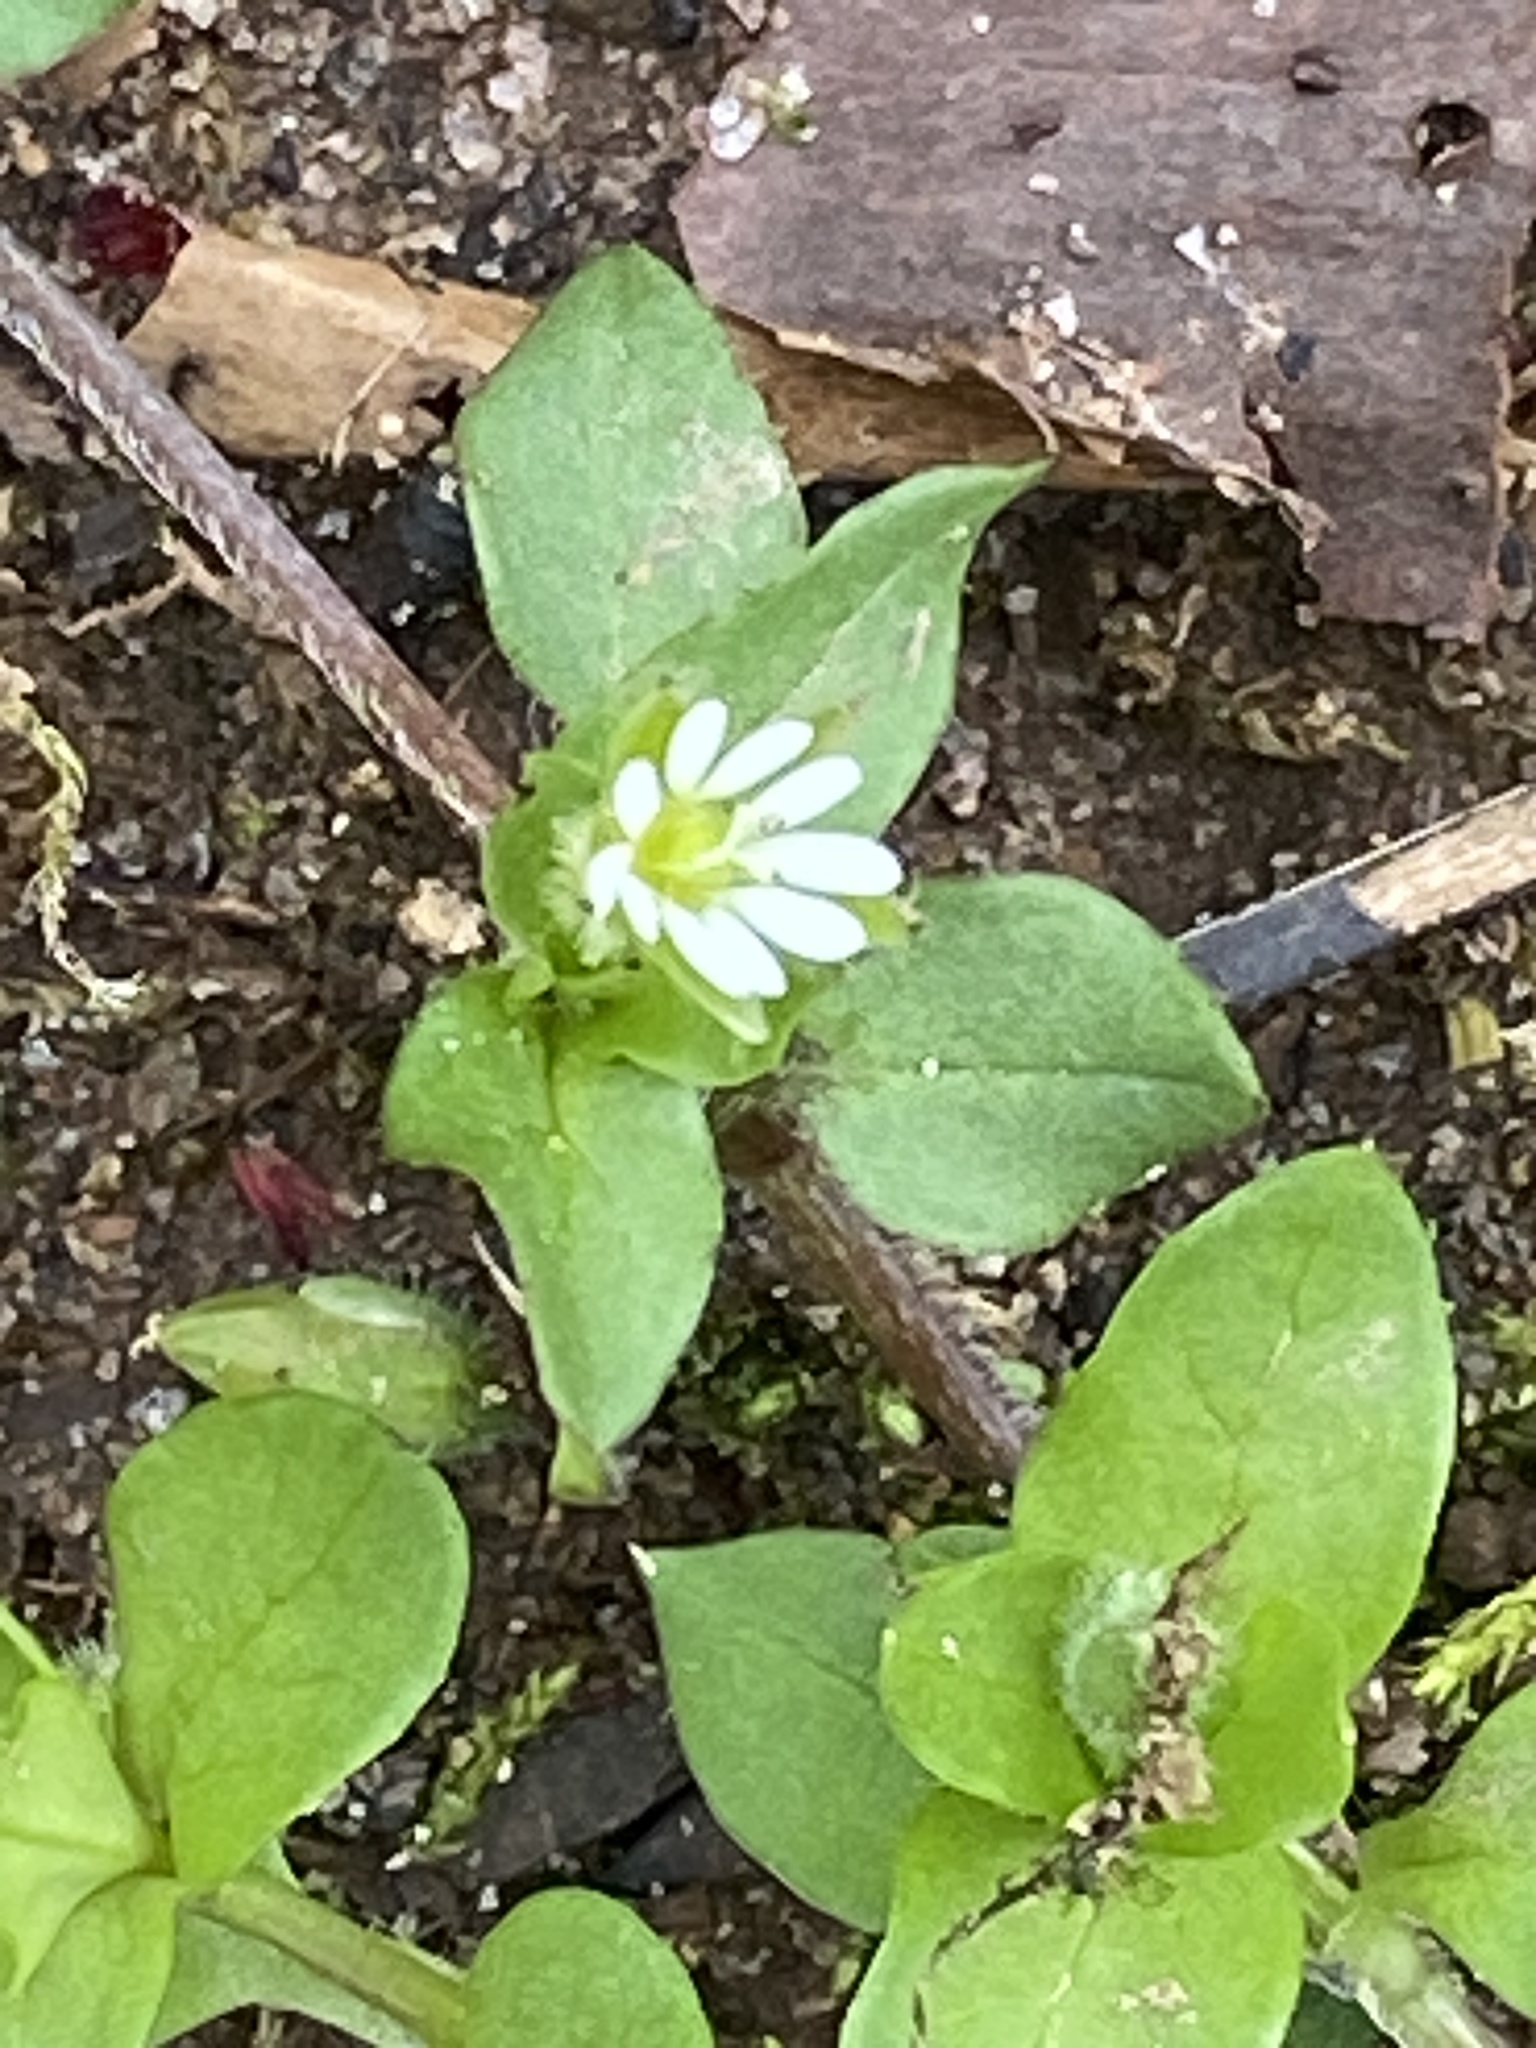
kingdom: Plantae
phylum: Tracheophyta
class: Magnoliopsida
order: Caryophyllales
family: Caryophyllaceae
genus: Stellaria
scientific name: Stellaria media
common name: Common chickweed
